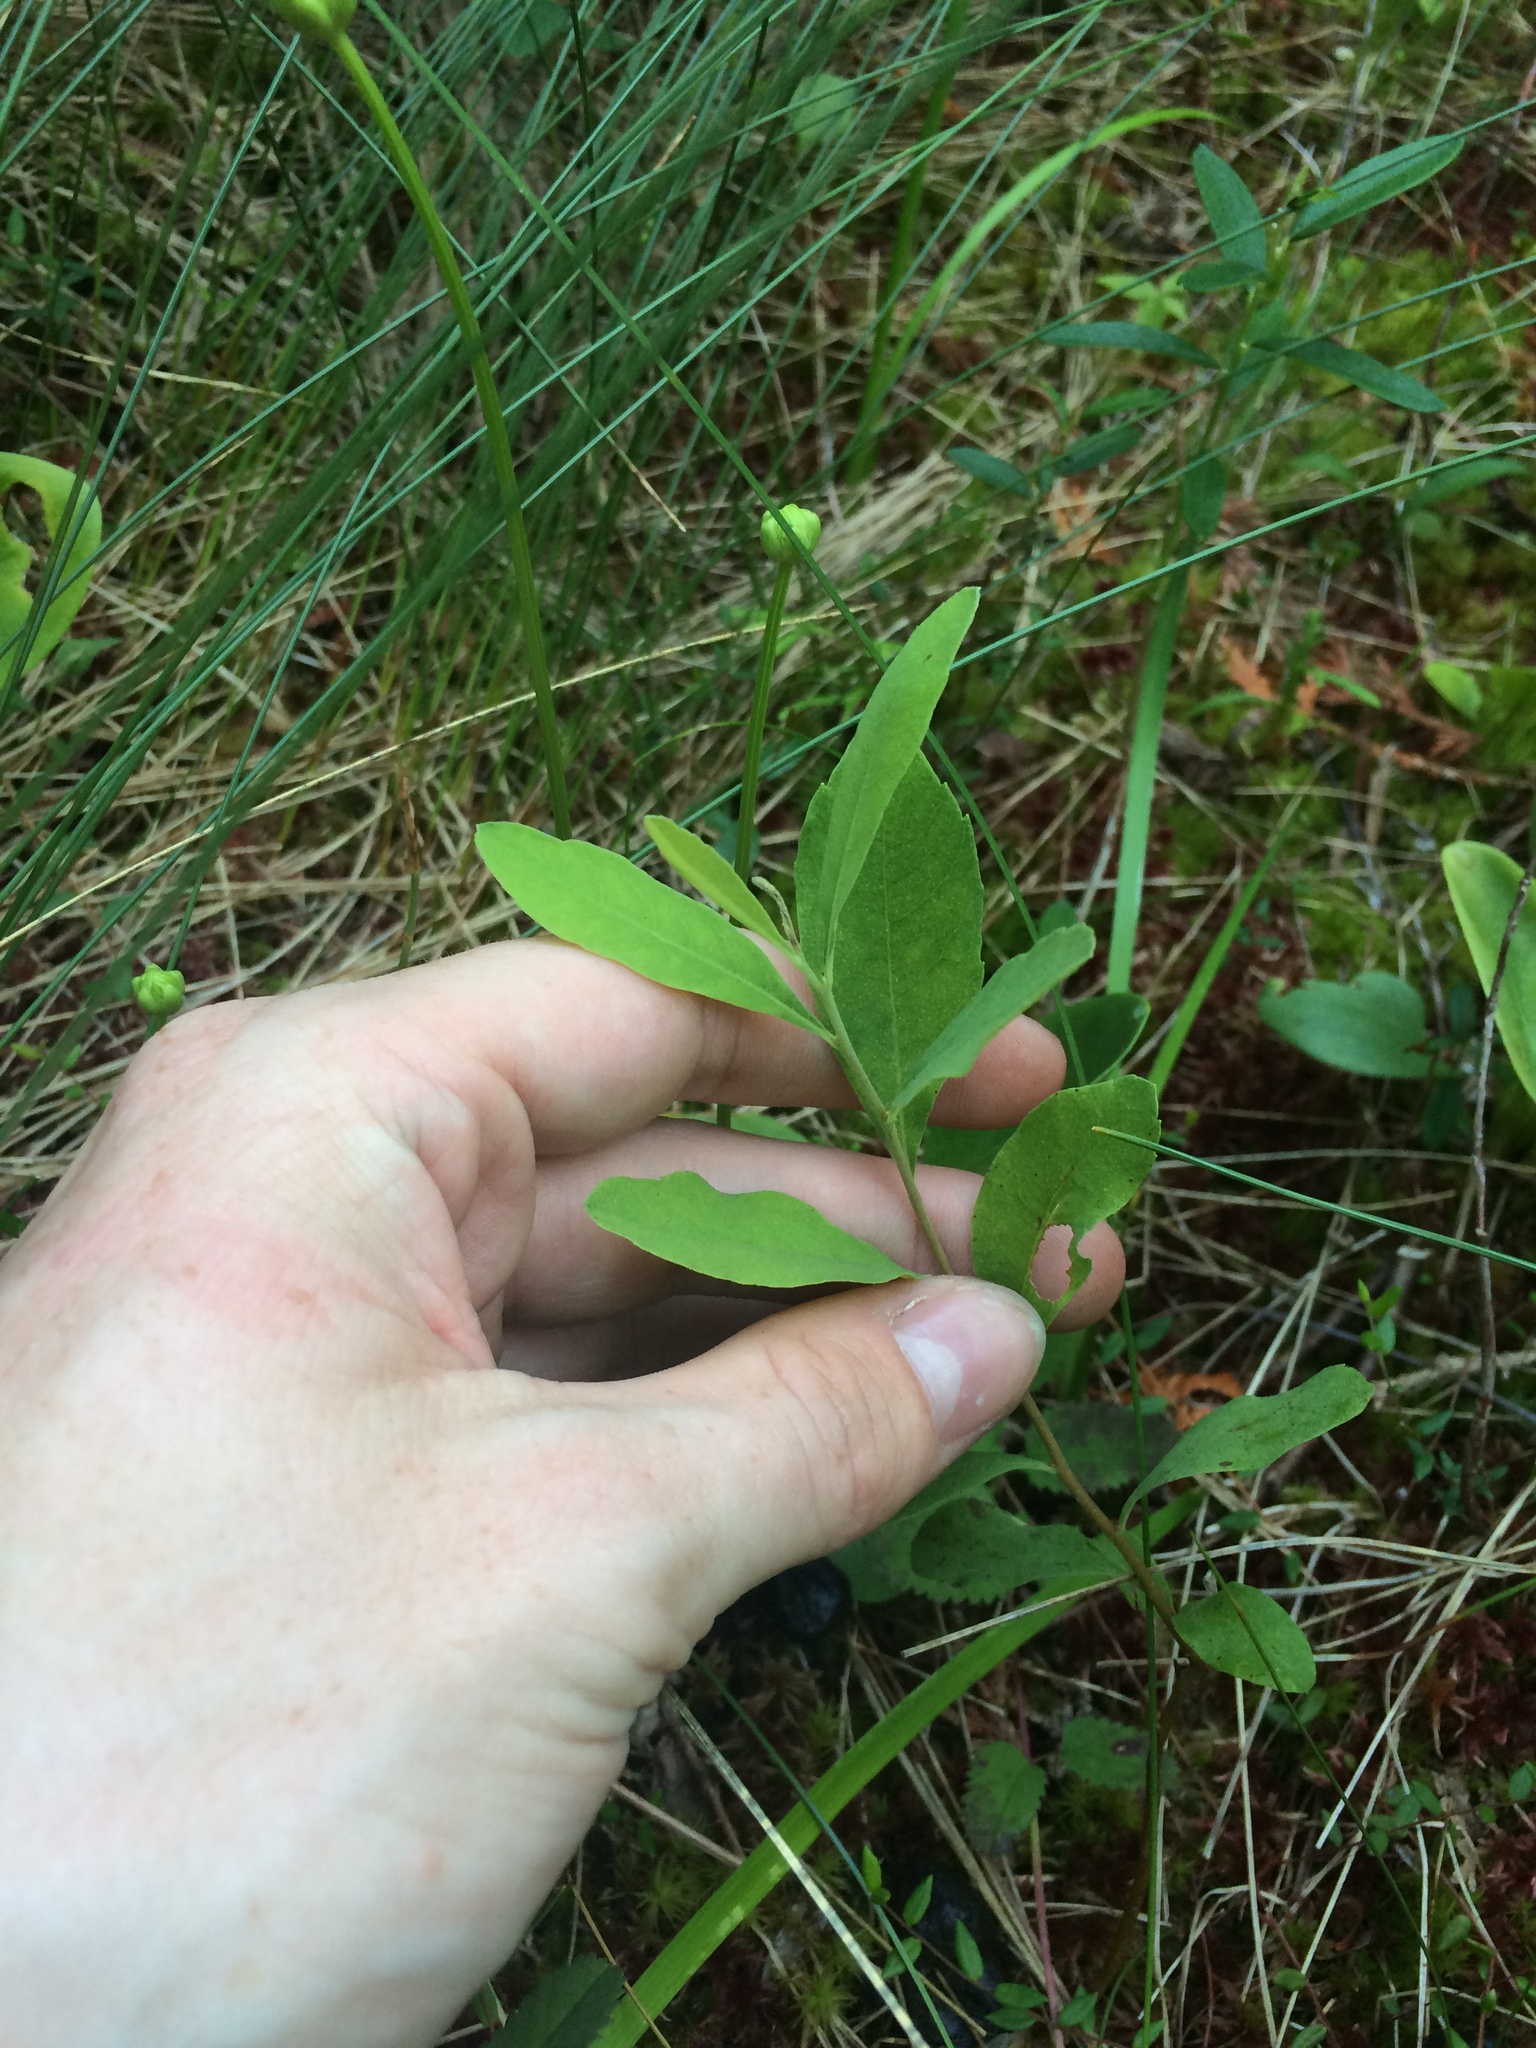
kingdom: Plantae
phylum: Tracheophyta
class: Magnoliopsida
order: Fagales
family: Myricaceae
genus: Myrica
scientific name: Myrica gale
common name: Sweet gale
